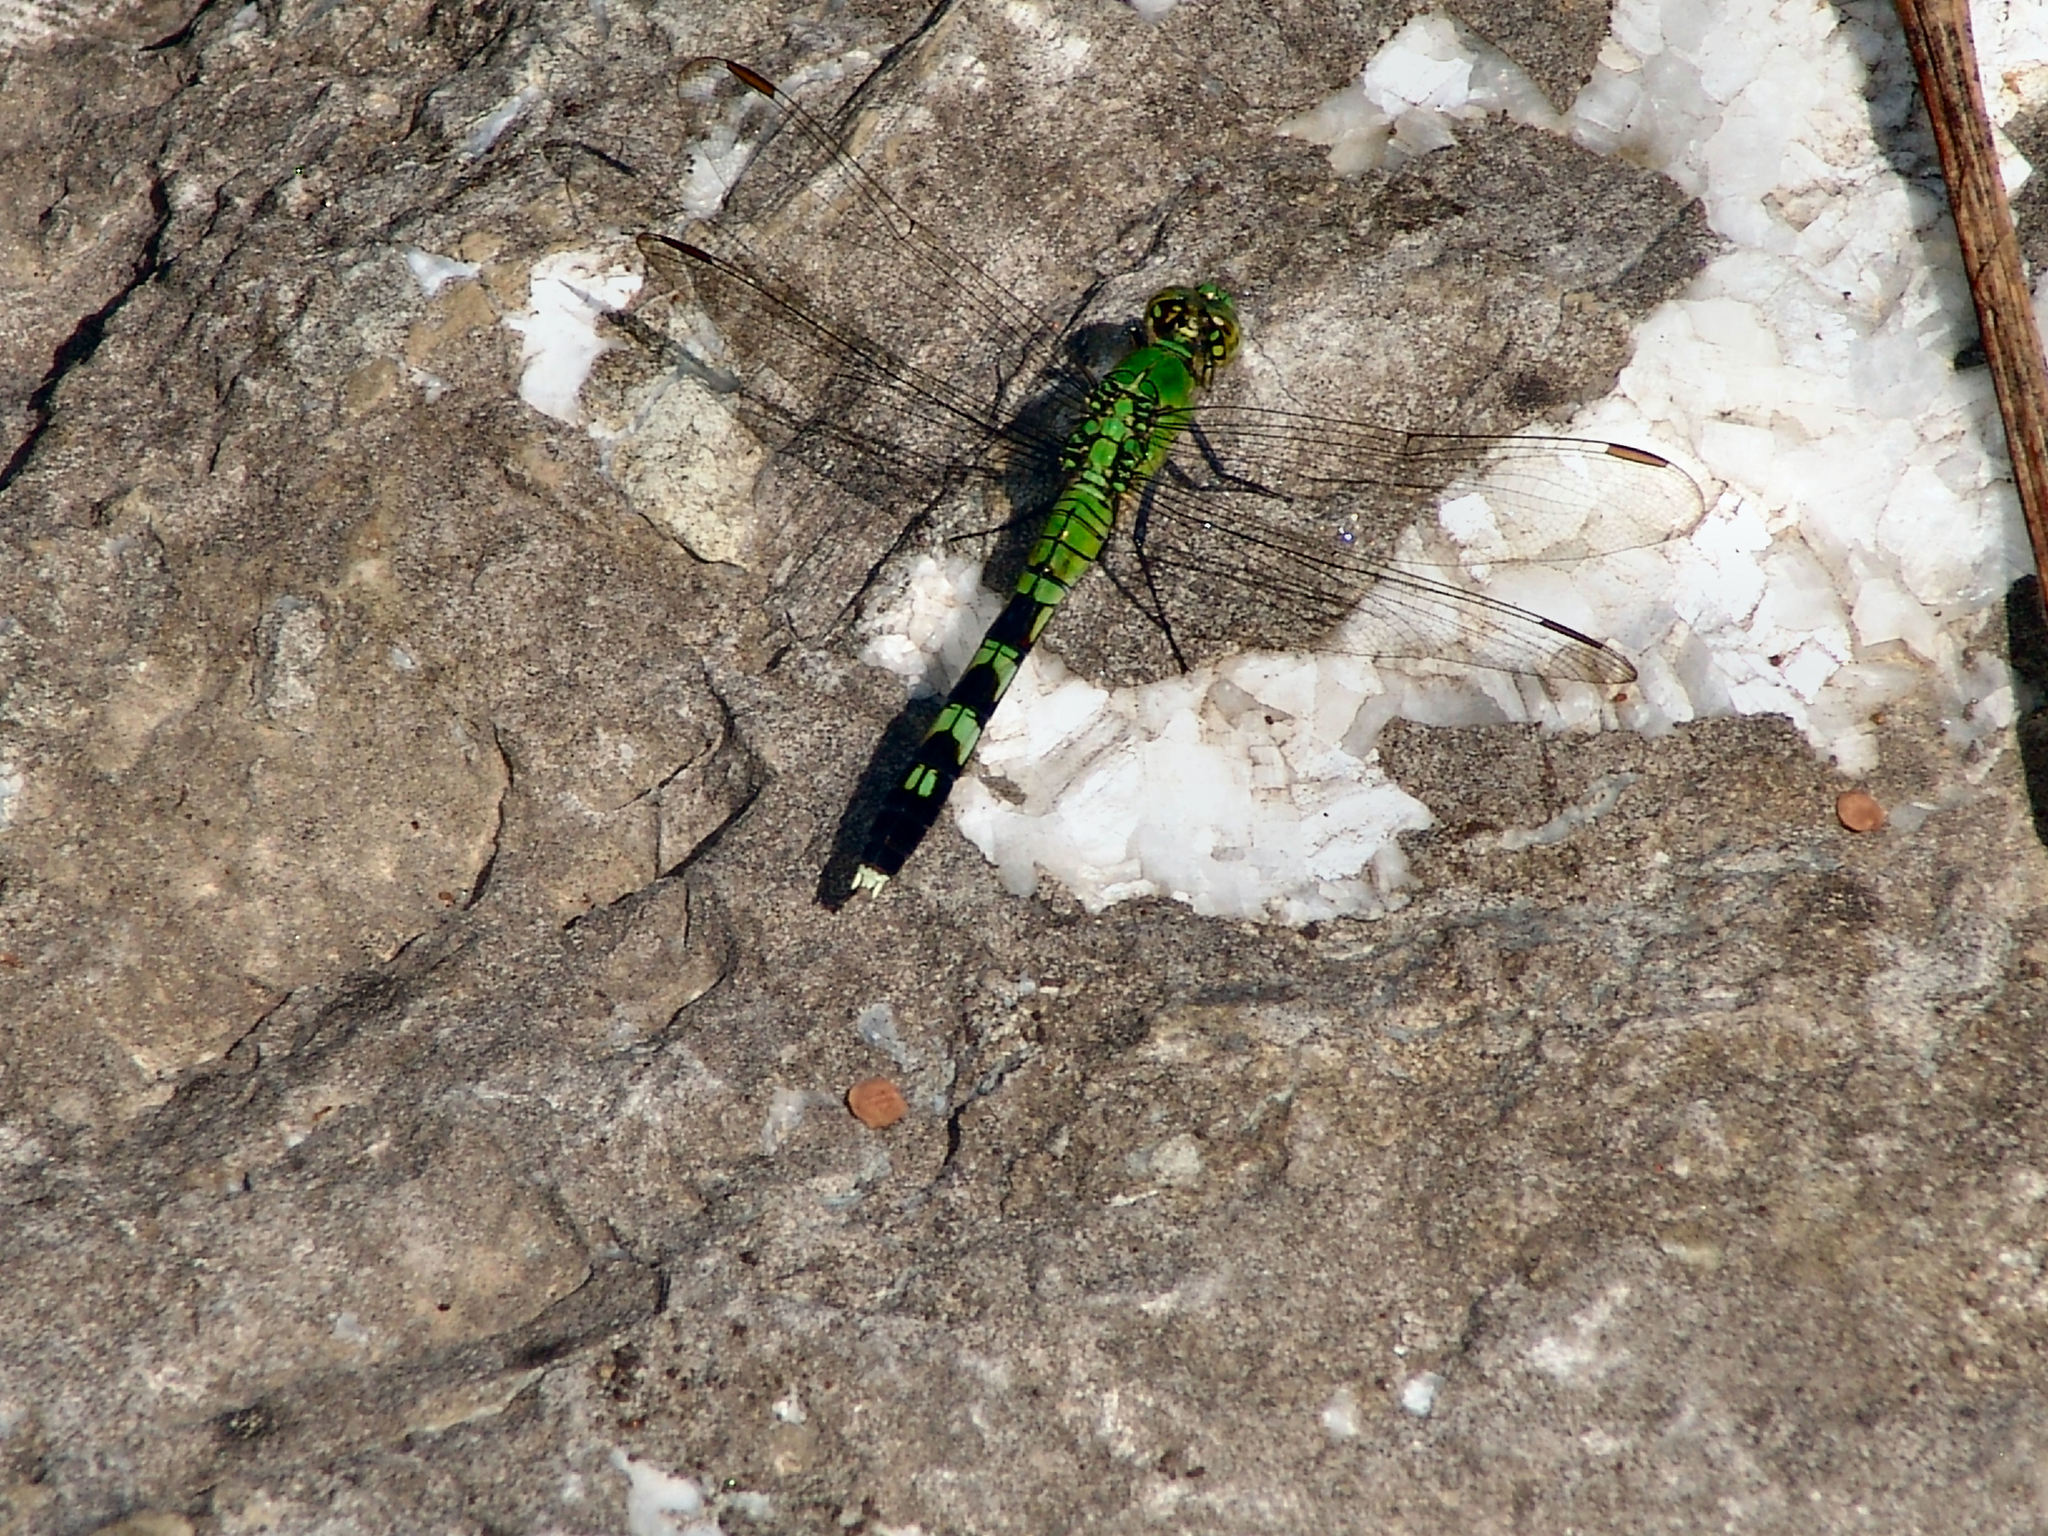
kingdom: Animalia
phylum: Arthropoda
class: Insecta
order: Odonata
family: Libellulidae
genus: Erythemis
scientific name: Erythemis simplicicollis
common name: Eastern pondhawk
